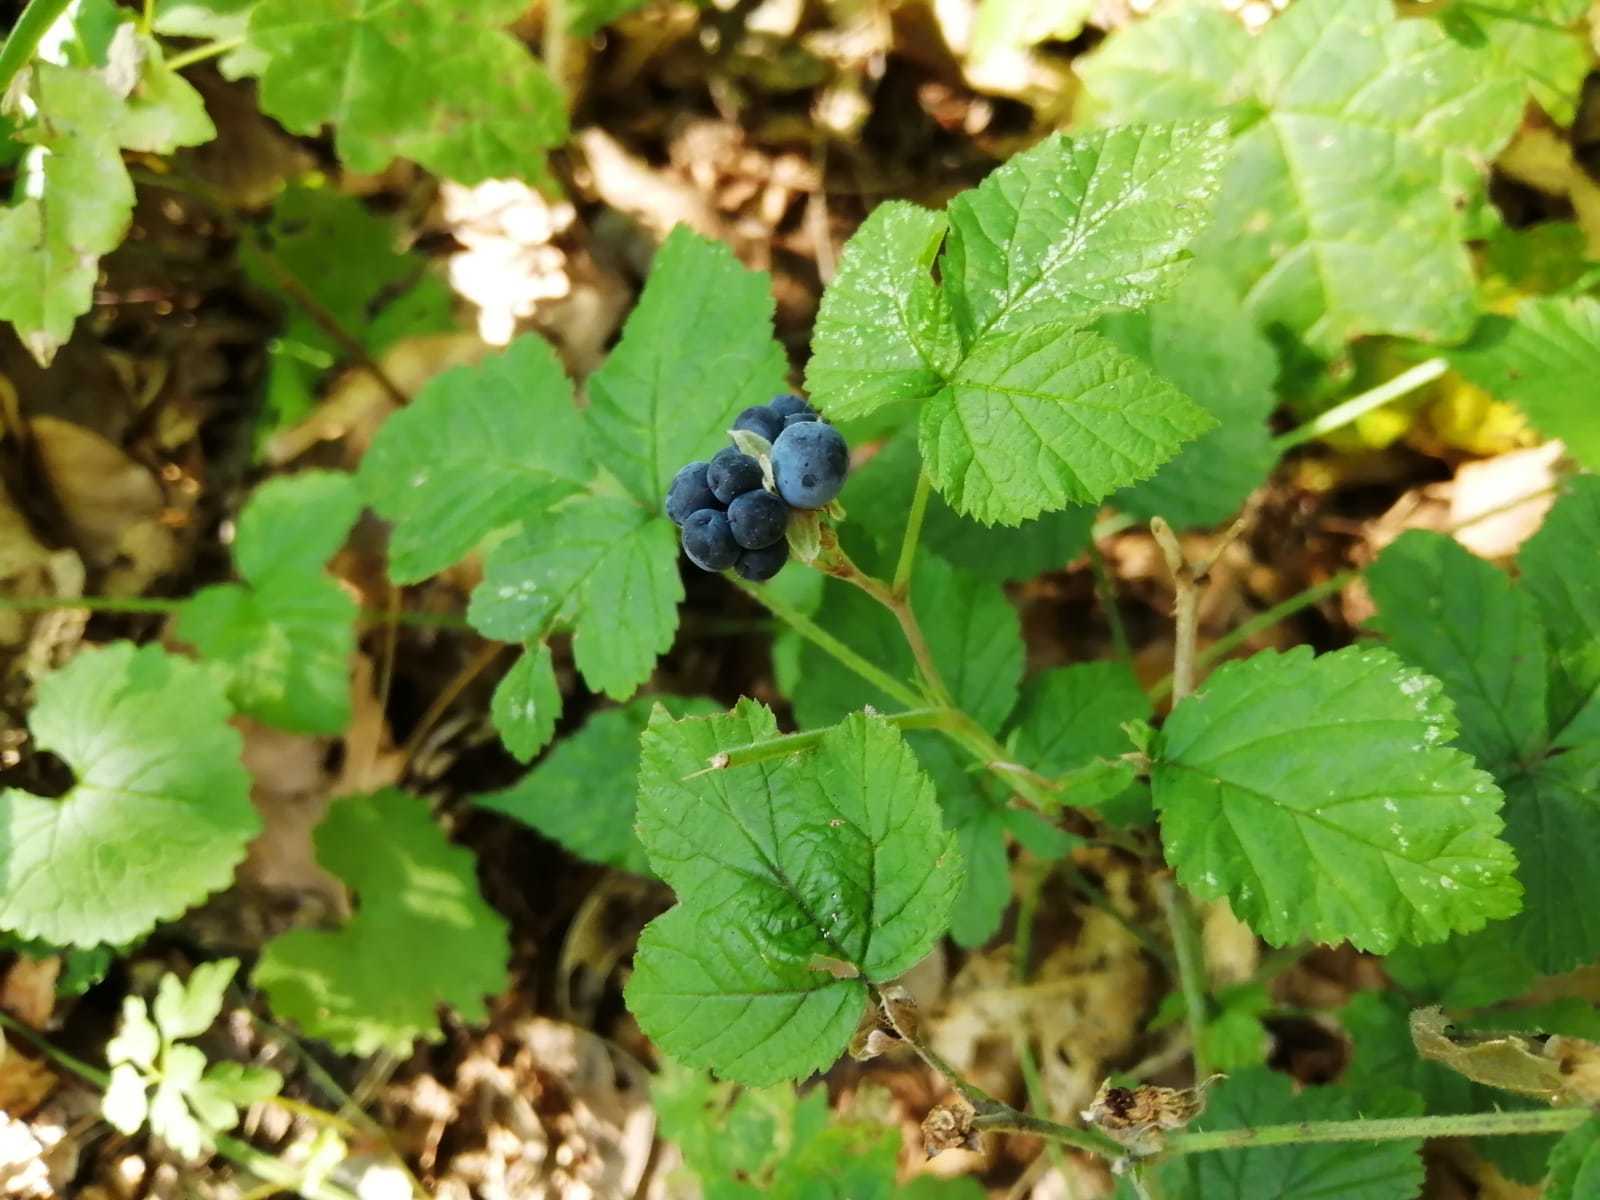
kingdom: Plantae
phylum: Tracheophyta
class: Magnoliopsida
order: Rosales
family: Rosaceae
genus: Rubus
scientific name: Rubus caesius
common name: Dewberry
